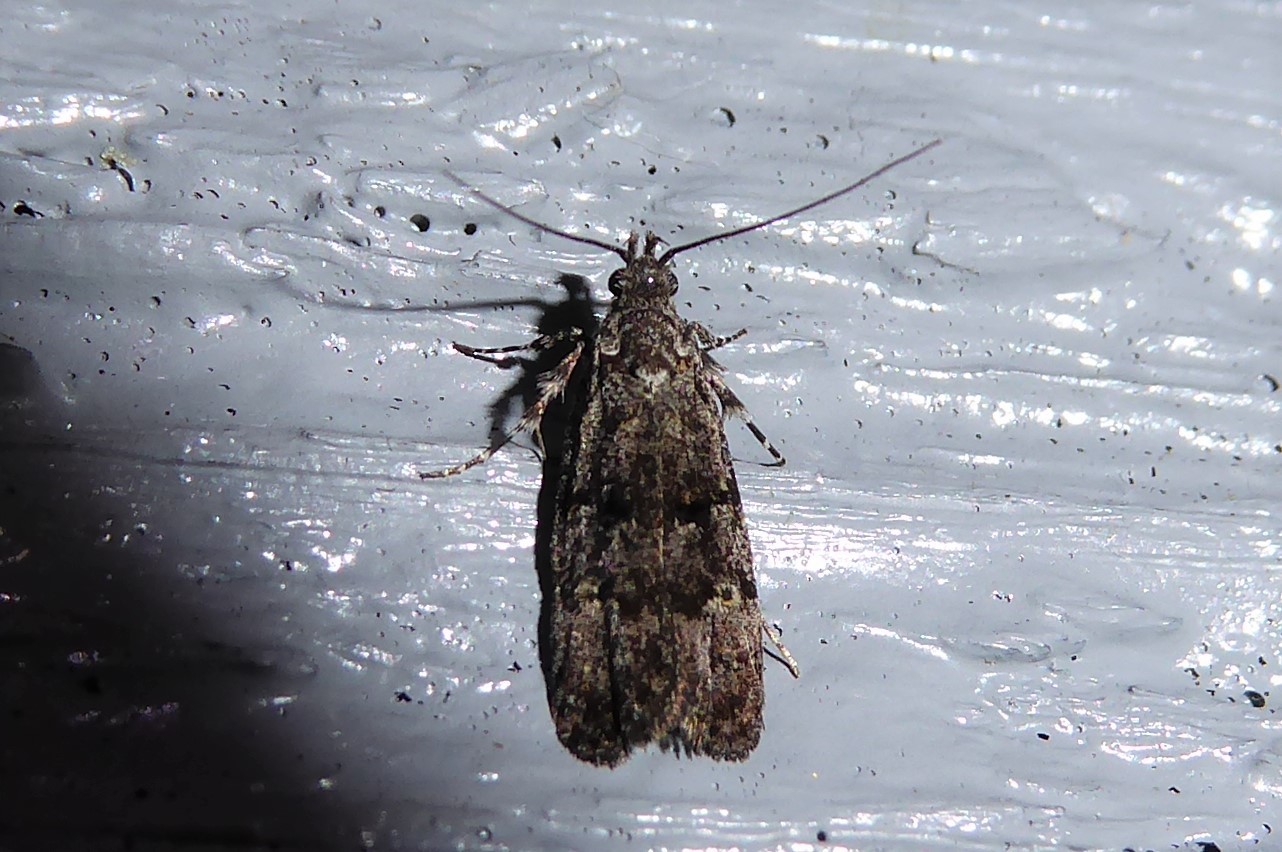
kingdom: Animalia
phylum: Arthropoda
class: Insecta
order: Lepidoptera
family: Oecophoridae
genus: Izatha
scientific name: Izatha copiosella
